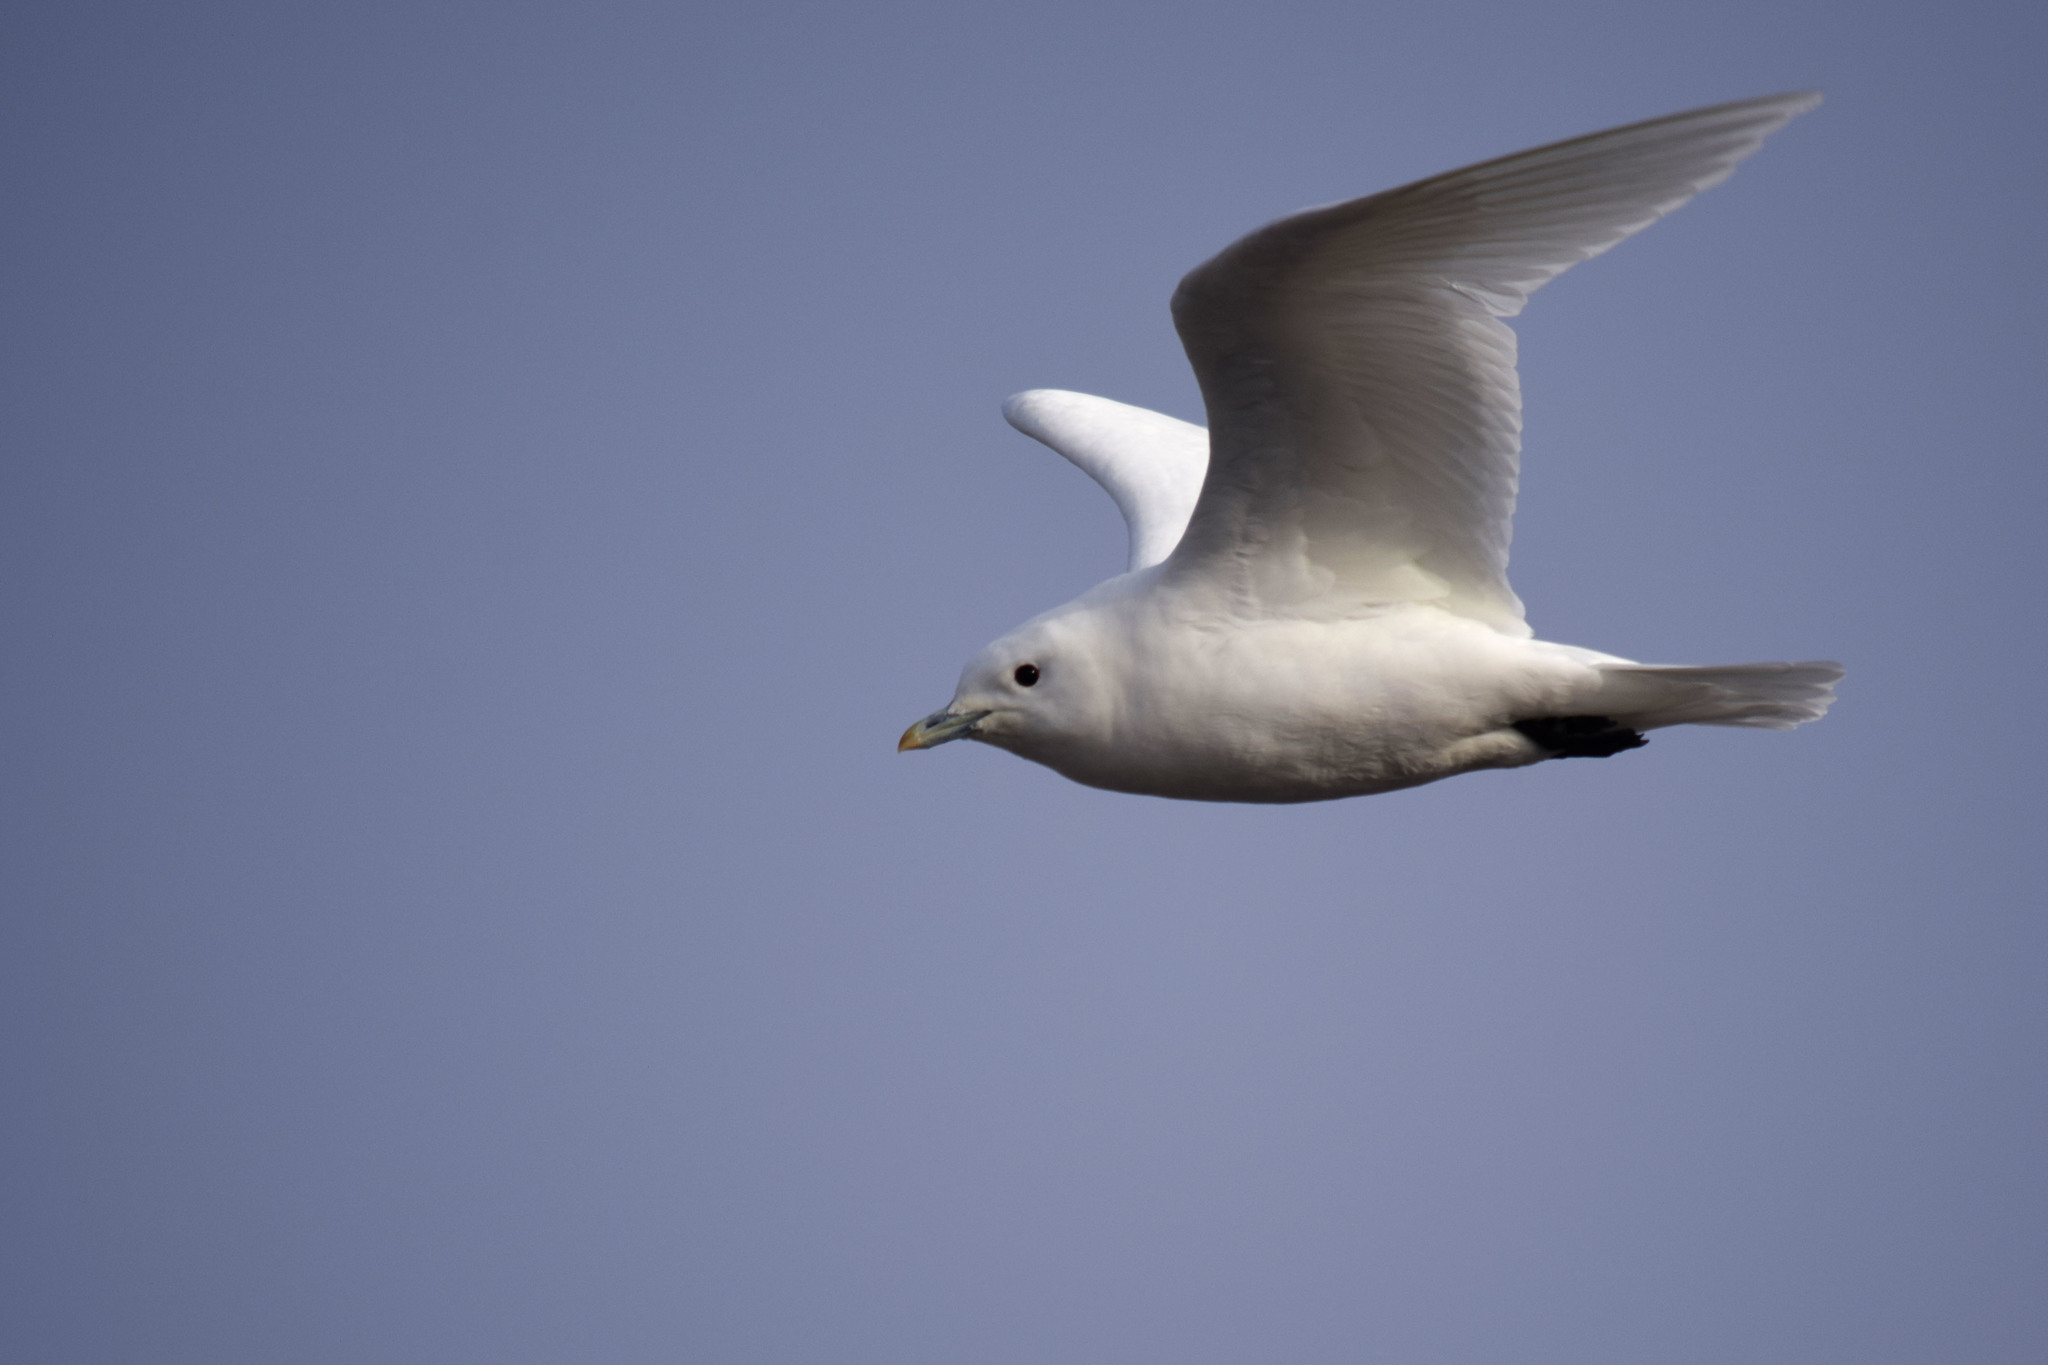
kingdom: Animalia
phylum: Chordata
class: Aves
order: Charadriiformes
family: Laridae
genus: Pagophila
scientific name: Pagophila eburnea
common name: Ivory gull
